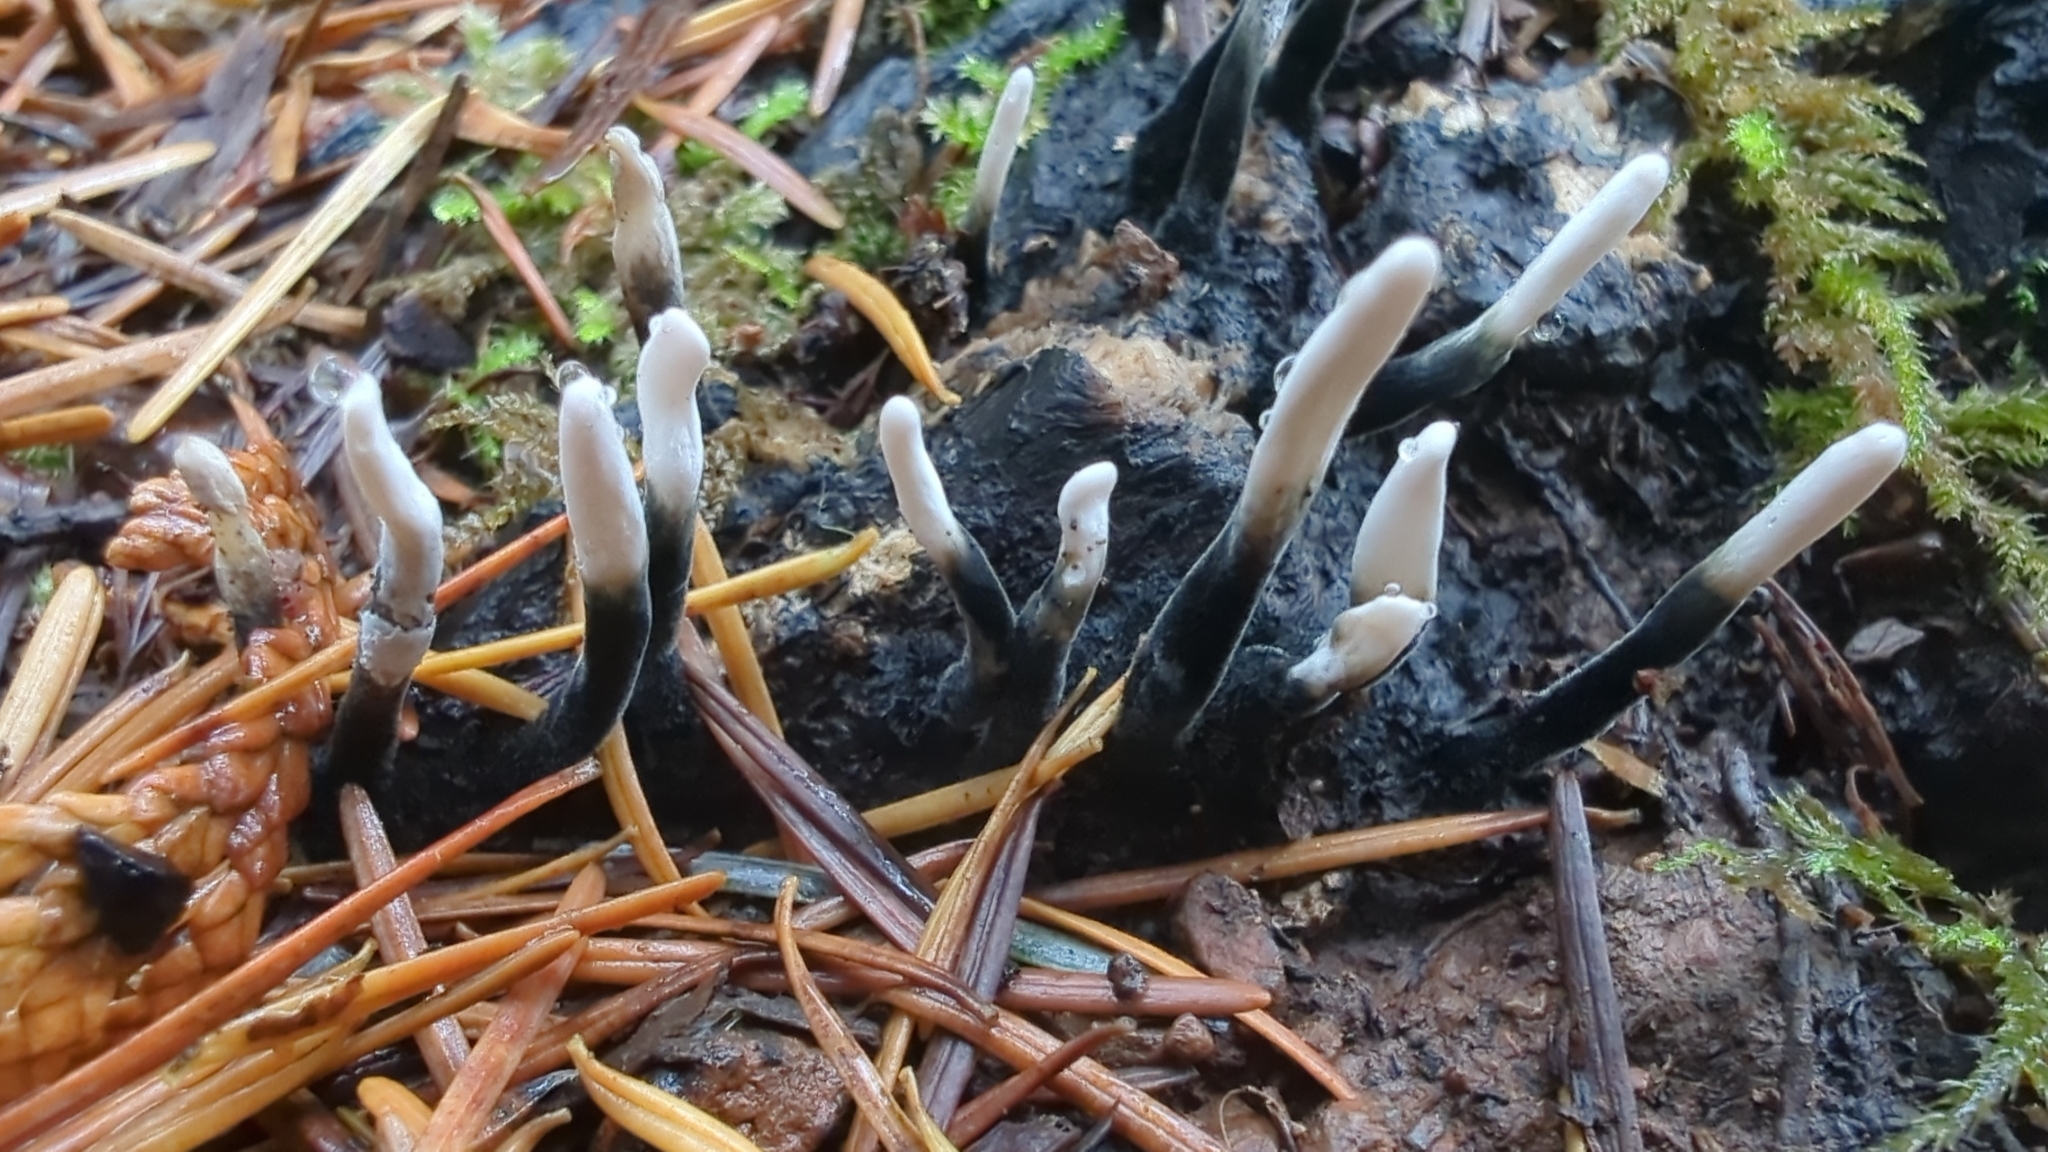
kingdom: Fungi
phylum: Ascomycota
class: Sordariomycetes
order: Xylariales
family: Xylariaceae
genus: Xylaria
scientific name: Xylaria hypoxylon
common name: Candle-snuff fungus
